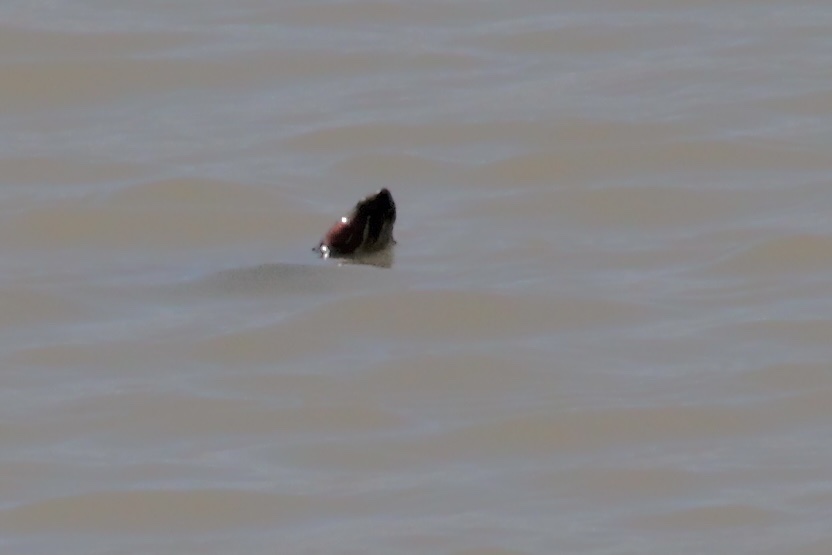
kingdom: Animalia
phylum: Chordata
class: Testudines
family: Emydidae
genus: Trachemys
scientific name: Trachemys scripta
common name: Slider
